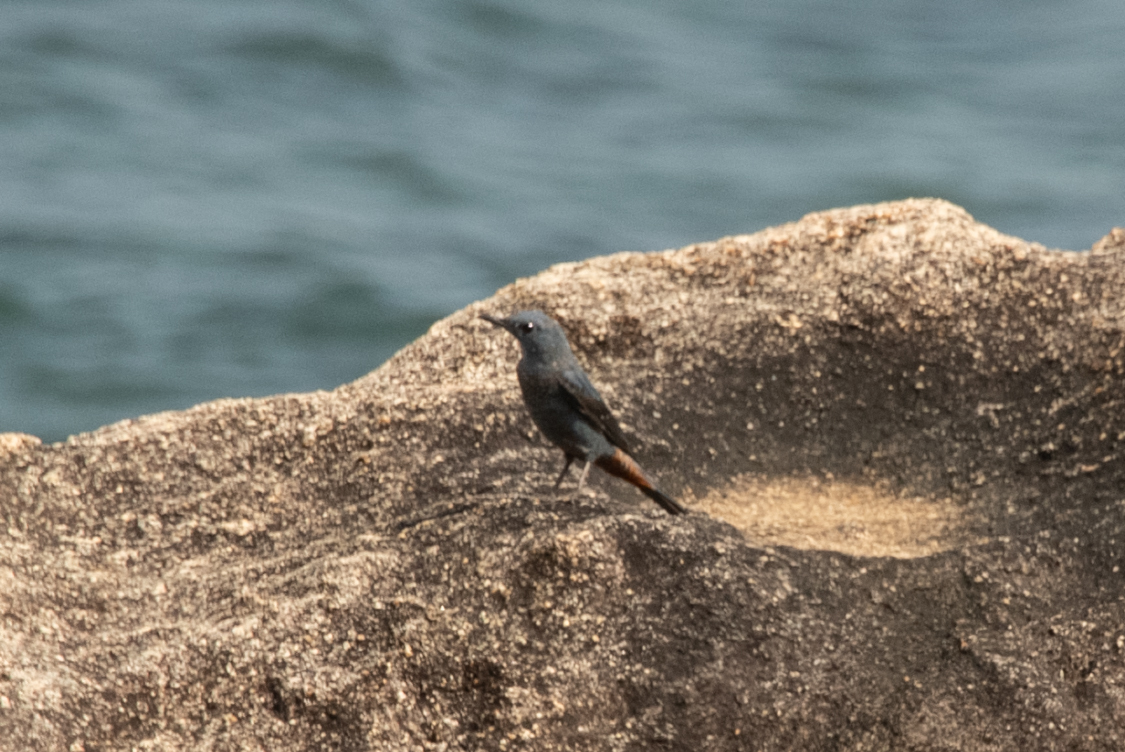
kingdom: Animalia
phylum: Chordata
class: Aves
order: Passeriformes
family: Muscicapidae
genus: Monticola
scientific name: Monticola solitarius
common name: Blue rock thrush
